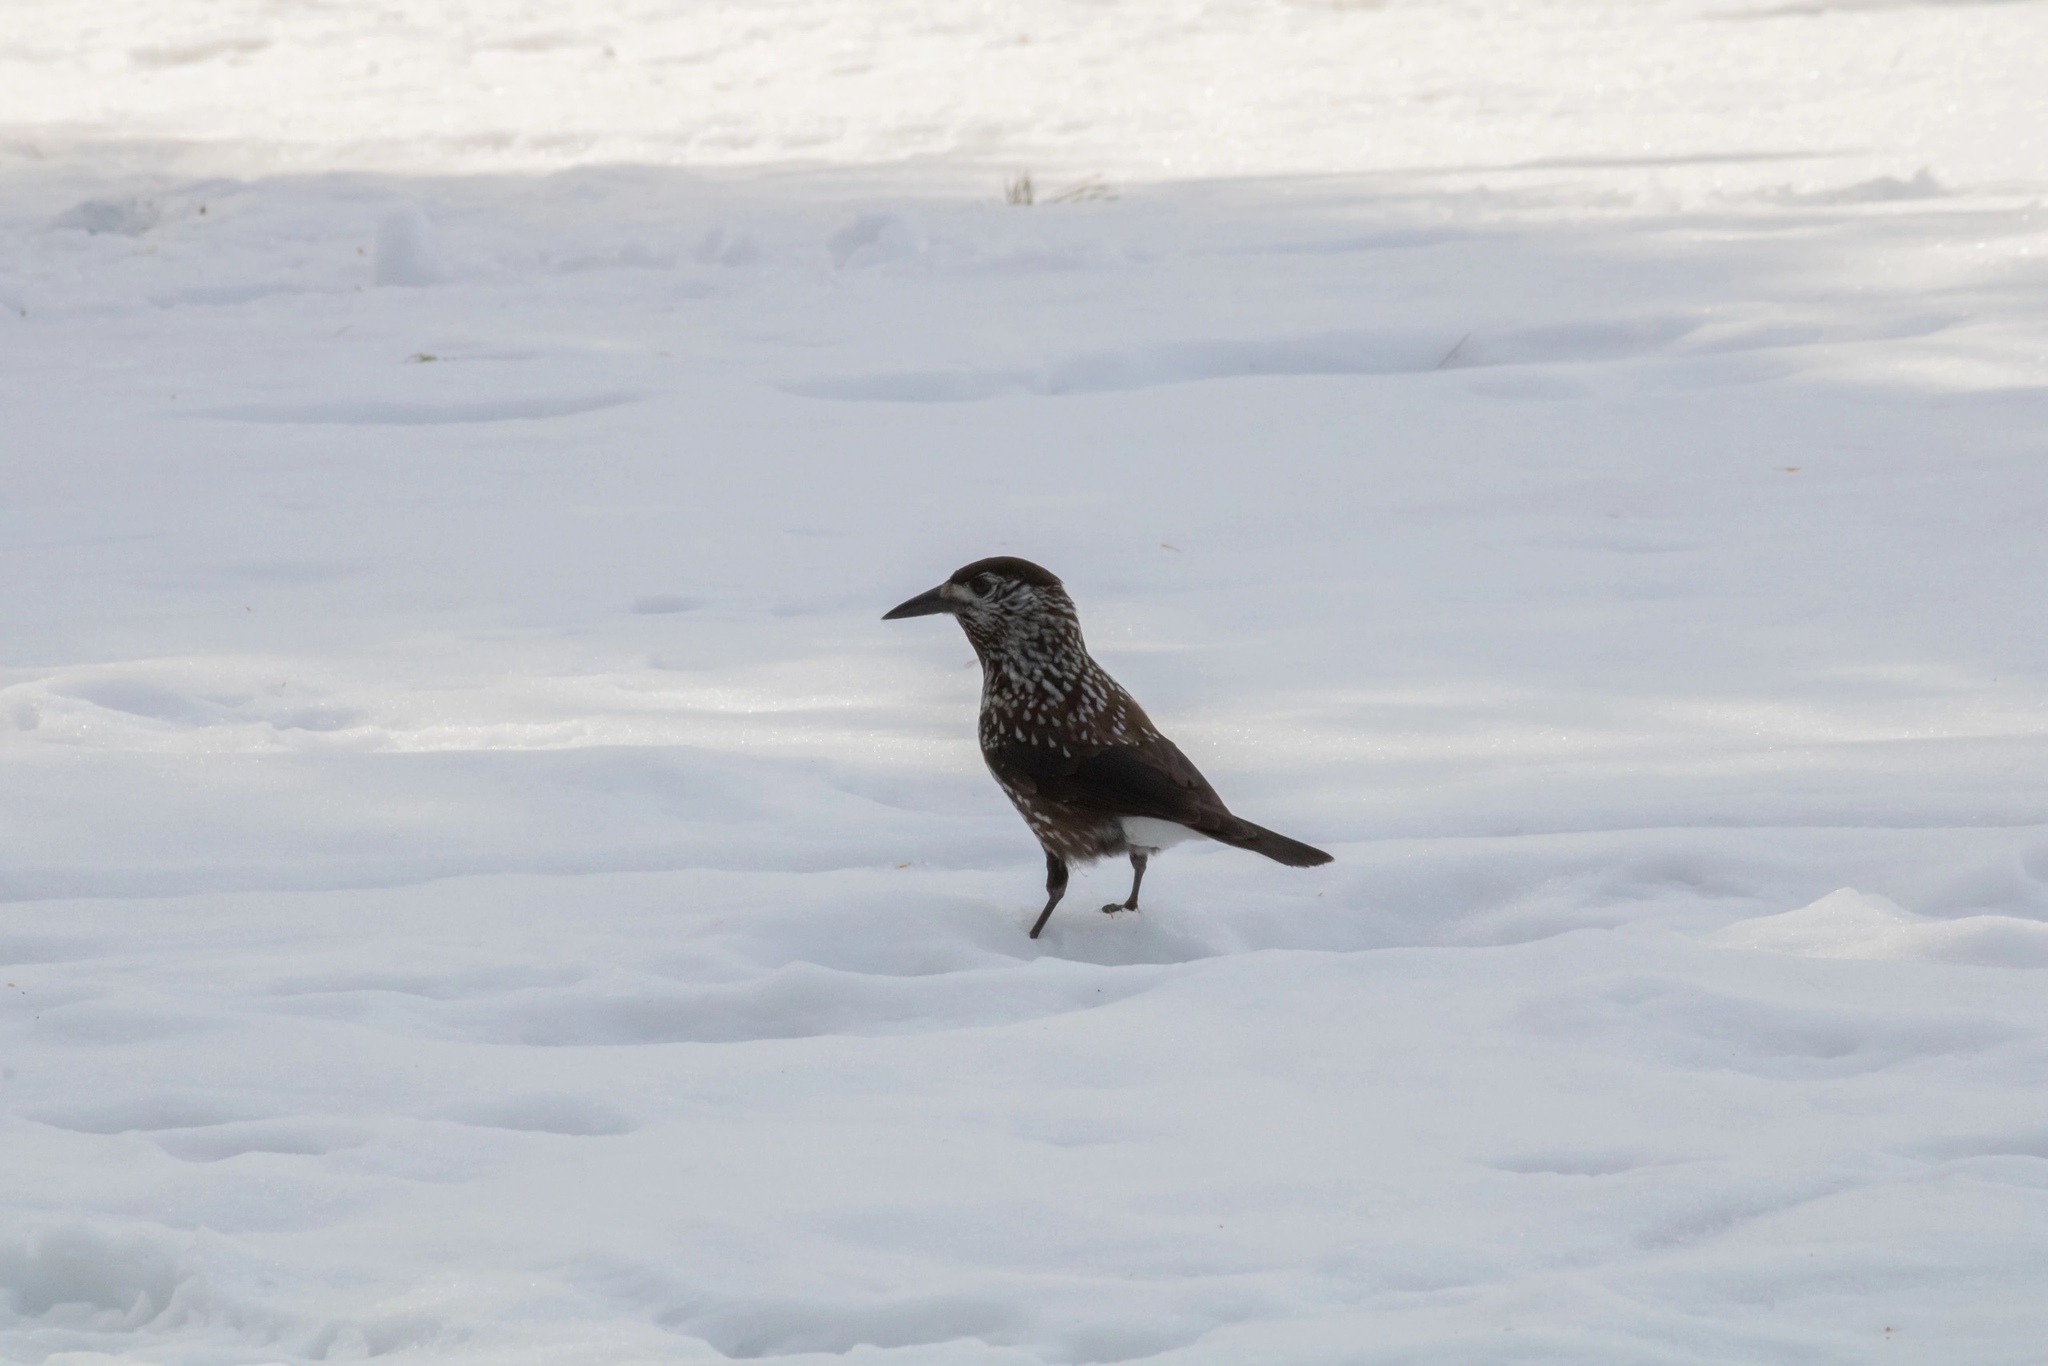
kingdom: Animalia
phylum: Chordata
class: Aves
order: Passeriformes
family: Corvidae
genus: Nucifraga
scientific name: Nucifraga caryocatactes
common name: Spotted nutcracker
